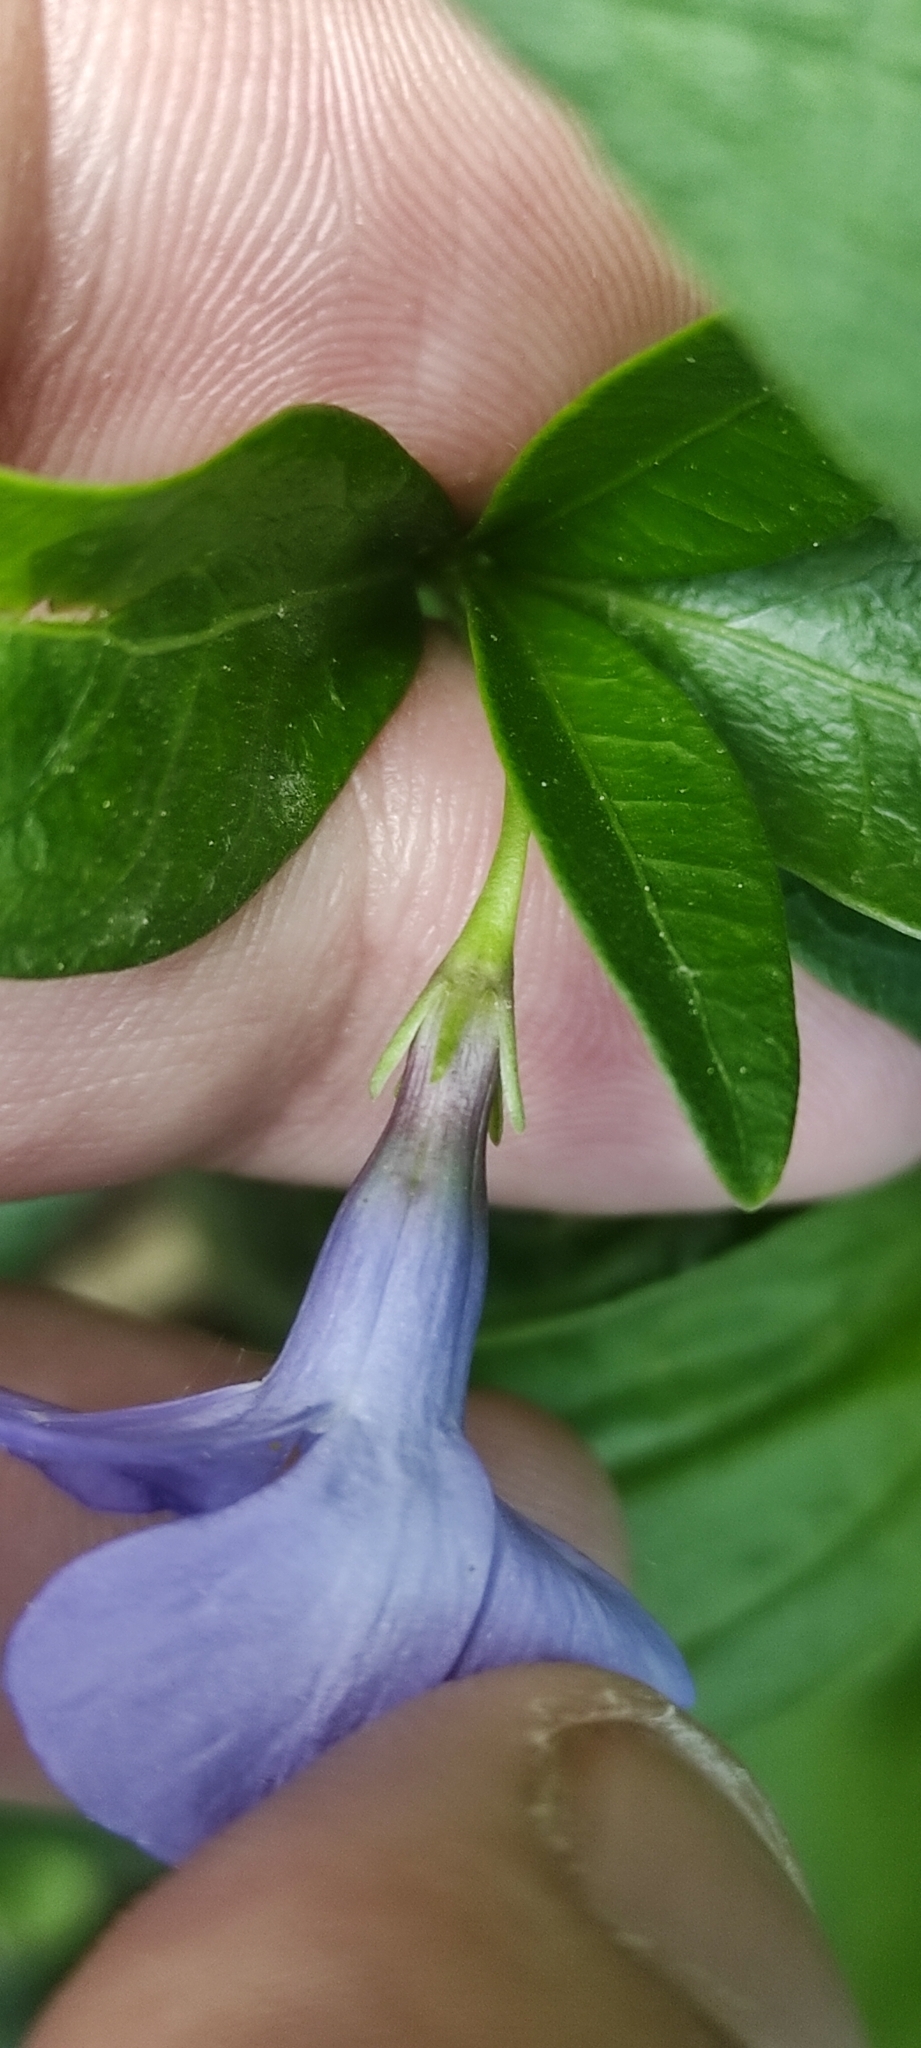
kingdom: Plantae
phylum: Tracheophyta
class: Magnoliopsida
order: Gentianales
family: Apocynaceae
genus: Vinca
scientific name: Vinca minor
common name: Lesser periwinkle
